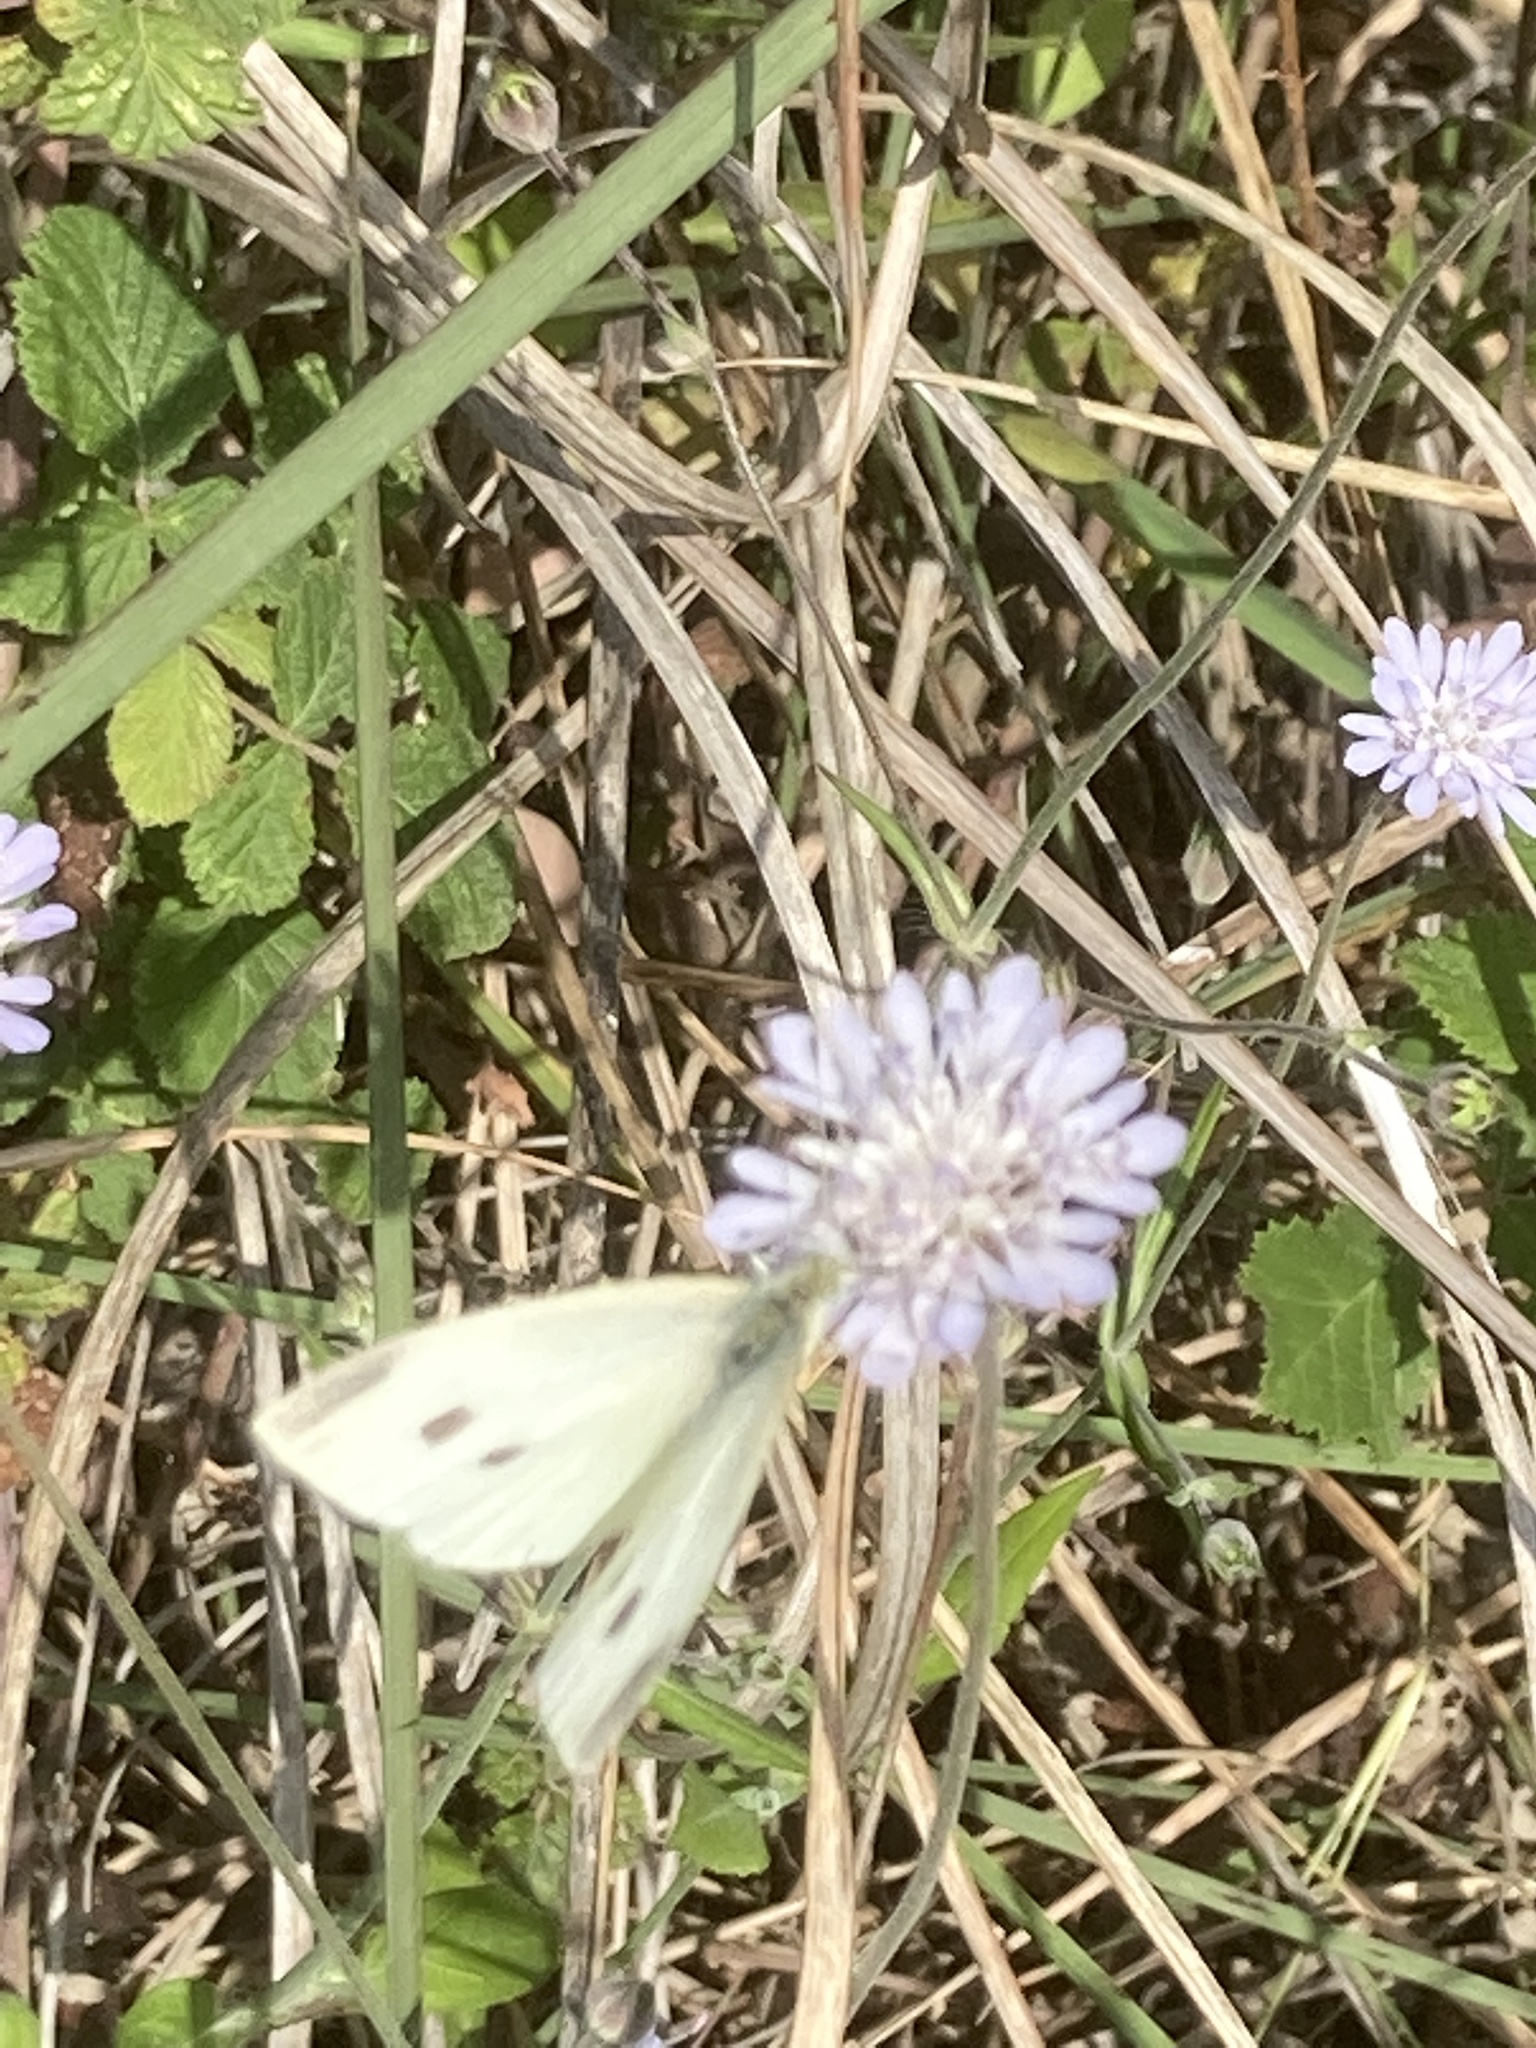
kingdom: Animalia
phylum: Arthropoda
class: Insecta
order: Lepidoptera
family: Pieridae
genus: Pieris
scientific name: Pieris rapae
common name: Small white
